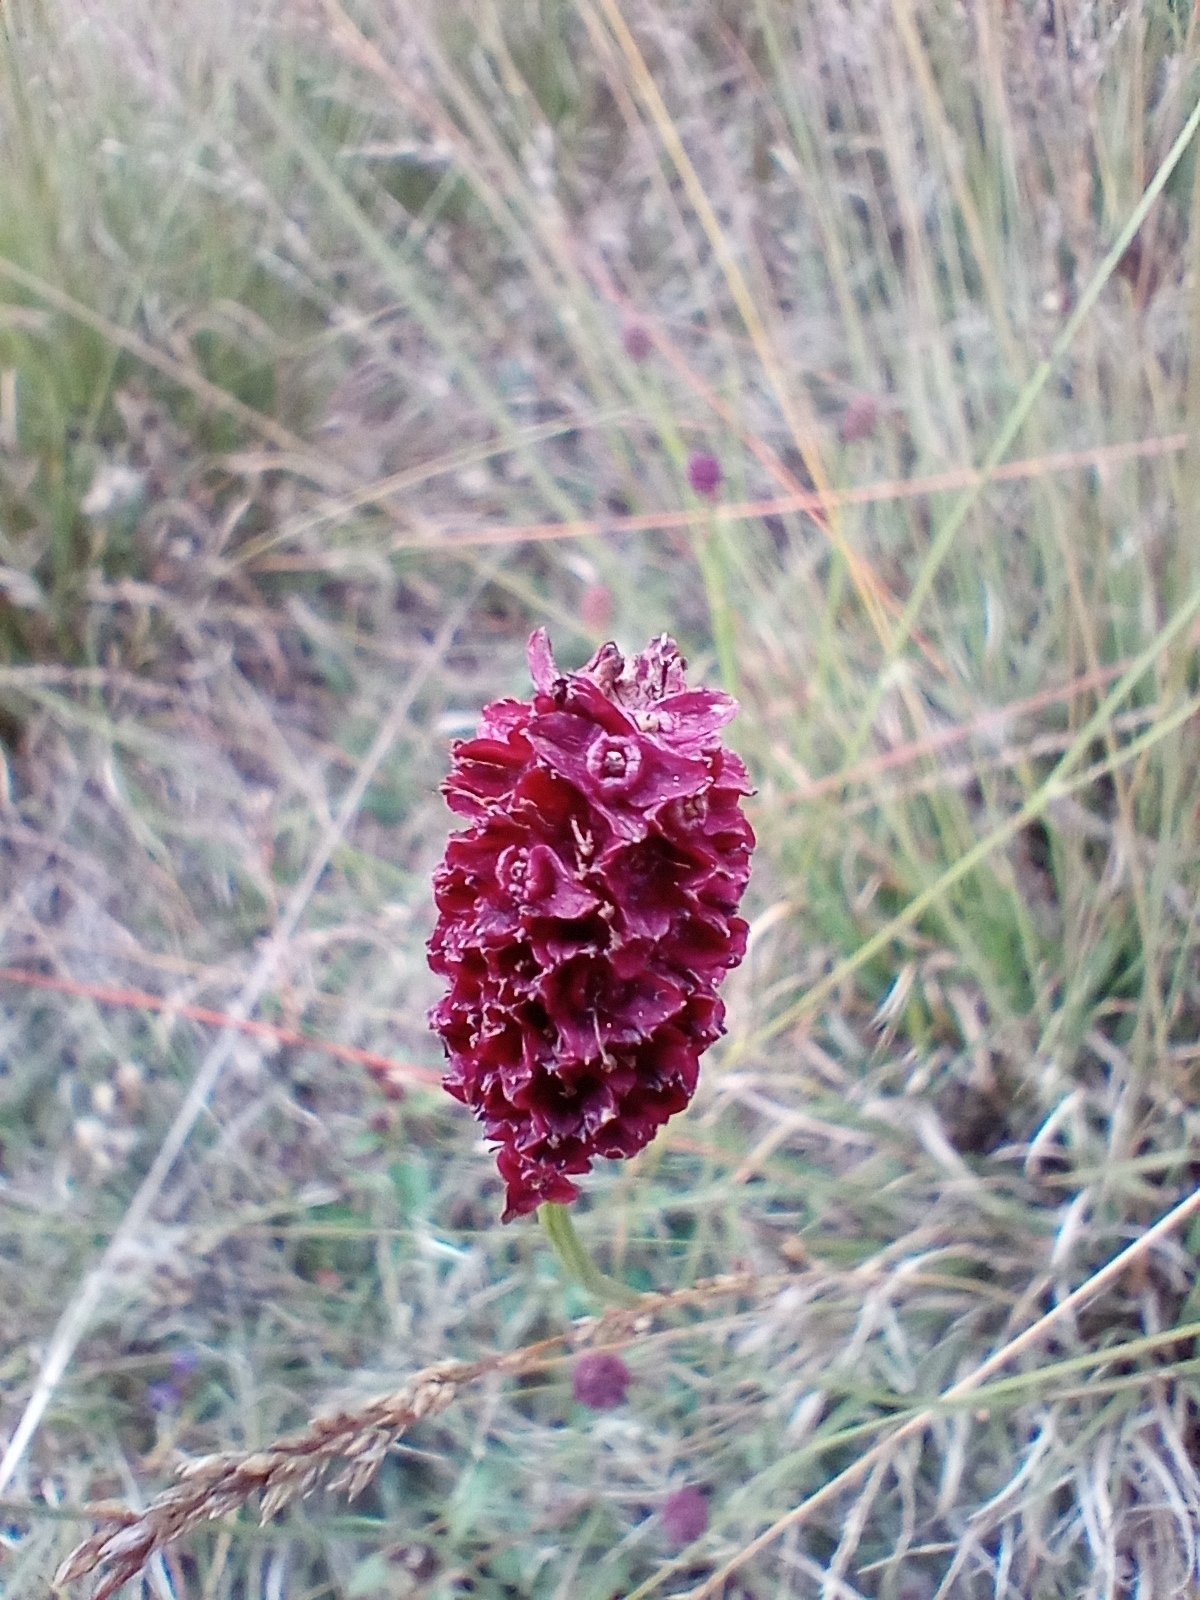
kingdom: Plantae
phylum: Tracheophyta
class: Magnoliopsida
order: Rosales
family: Rosaceae
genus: Sanguisorba
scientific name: Sanguisorba officinalis
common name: Great burnet
